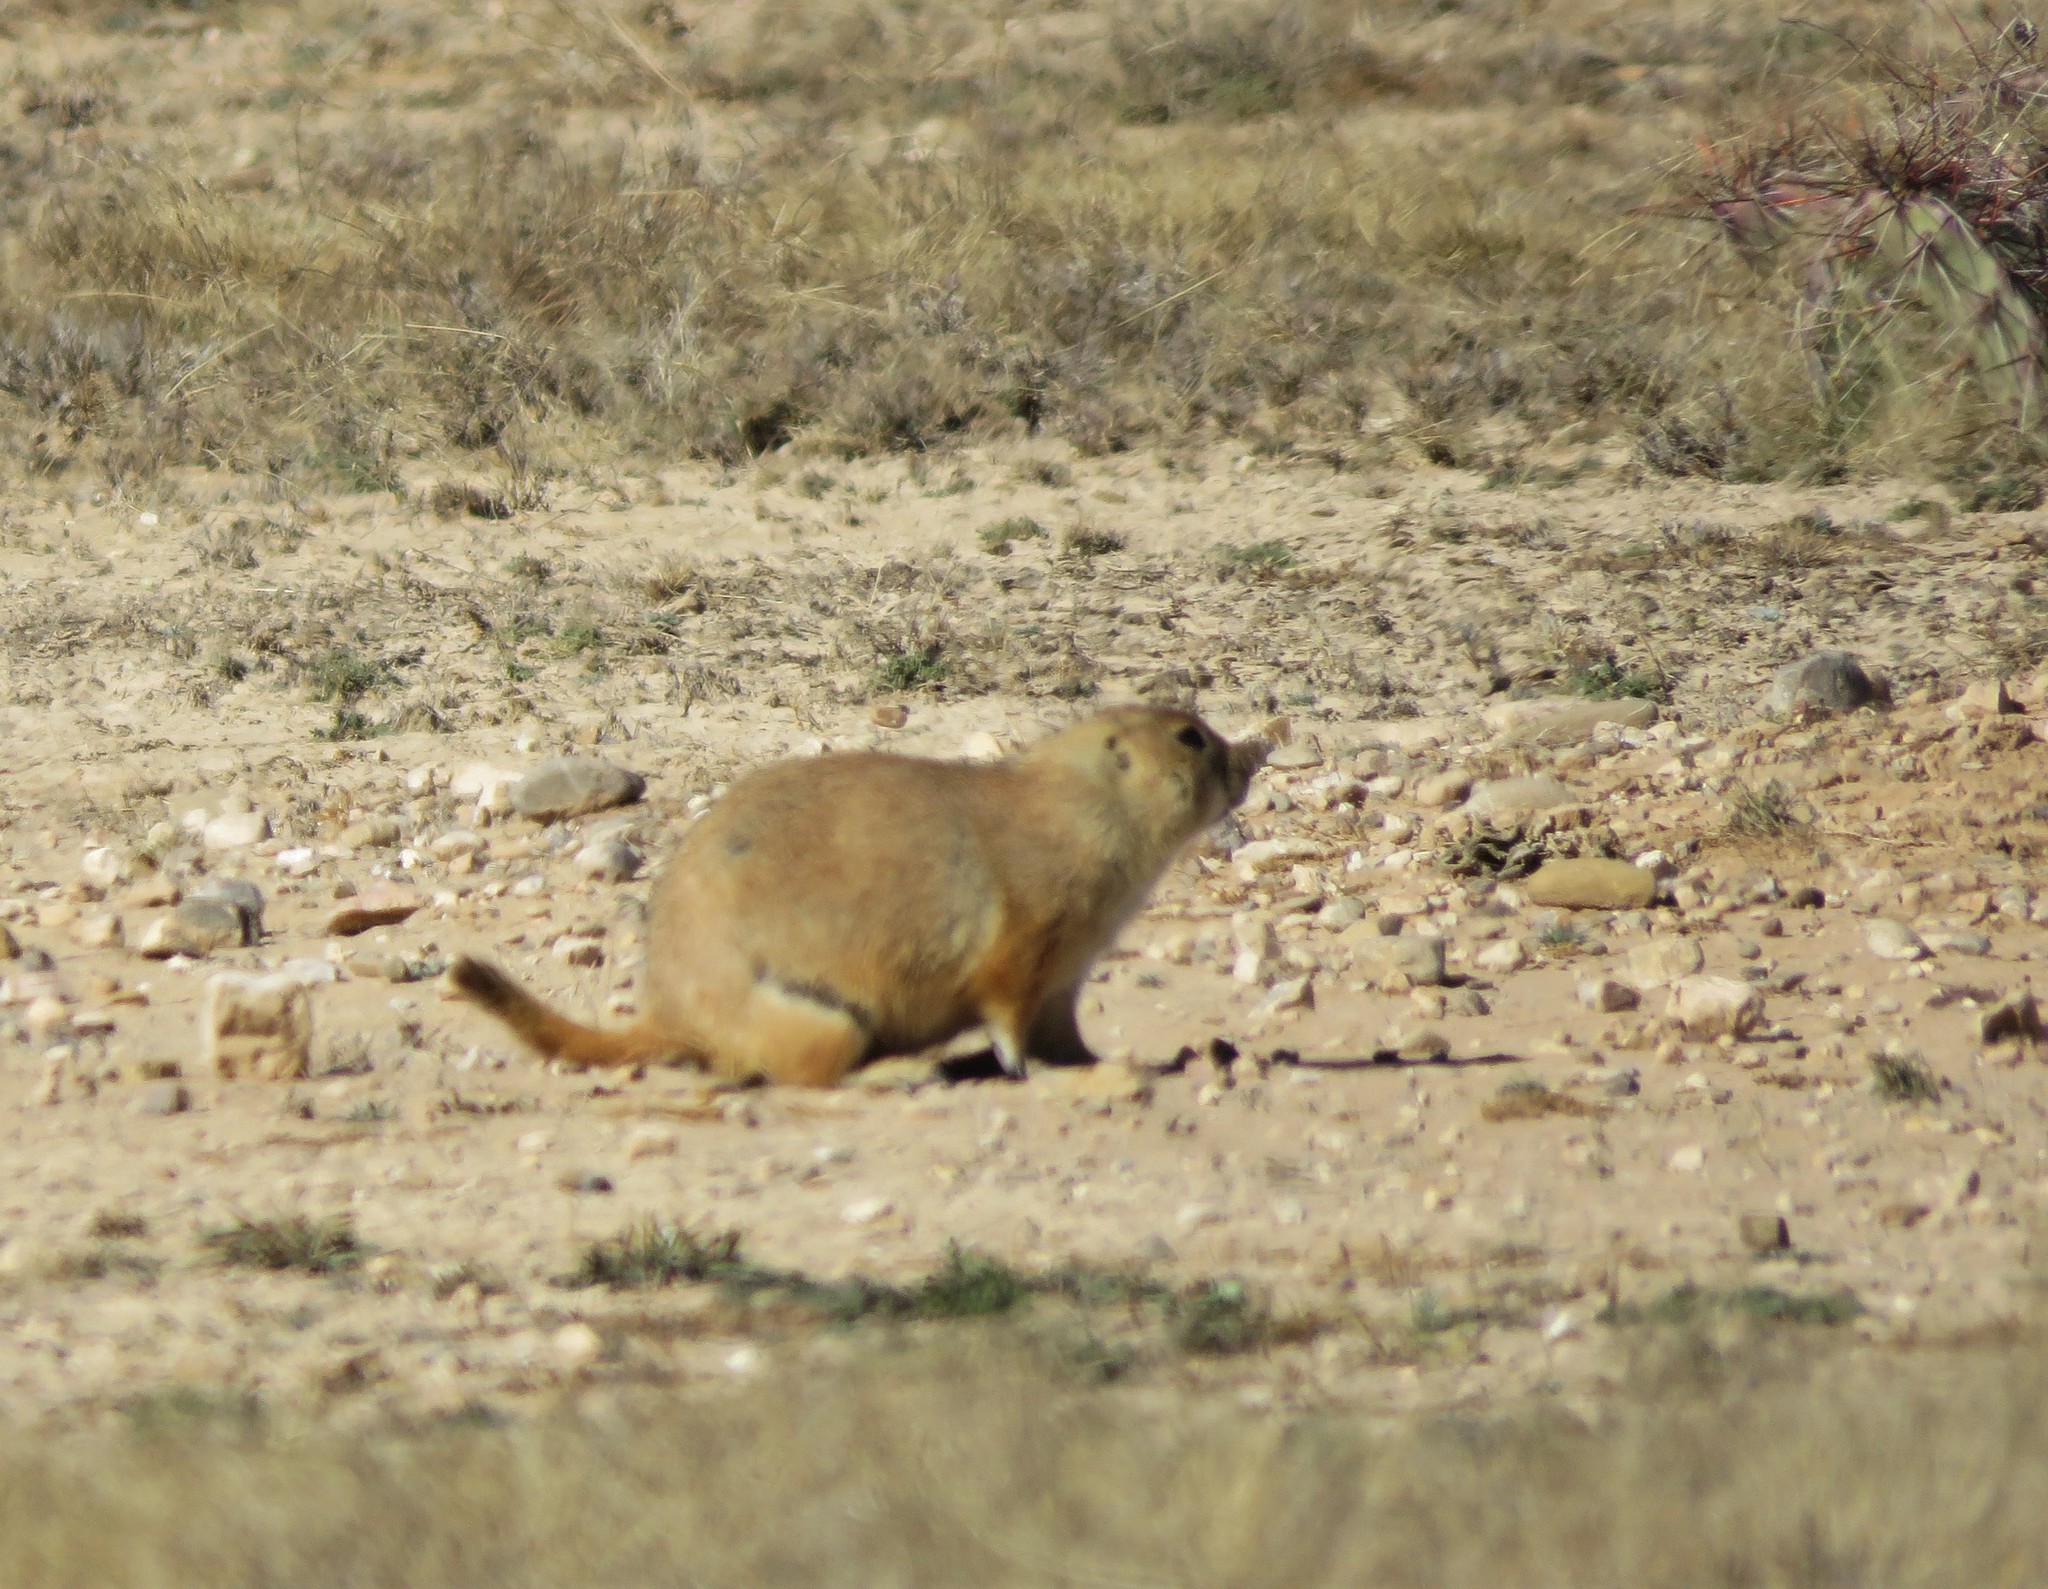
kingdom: Animalia
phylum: Chordata
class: Mammalia
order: Rodentia
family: Sciuridae
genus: Cynomys
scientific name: Cynomys ludovicianus
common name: Black-tailed prairie dog
